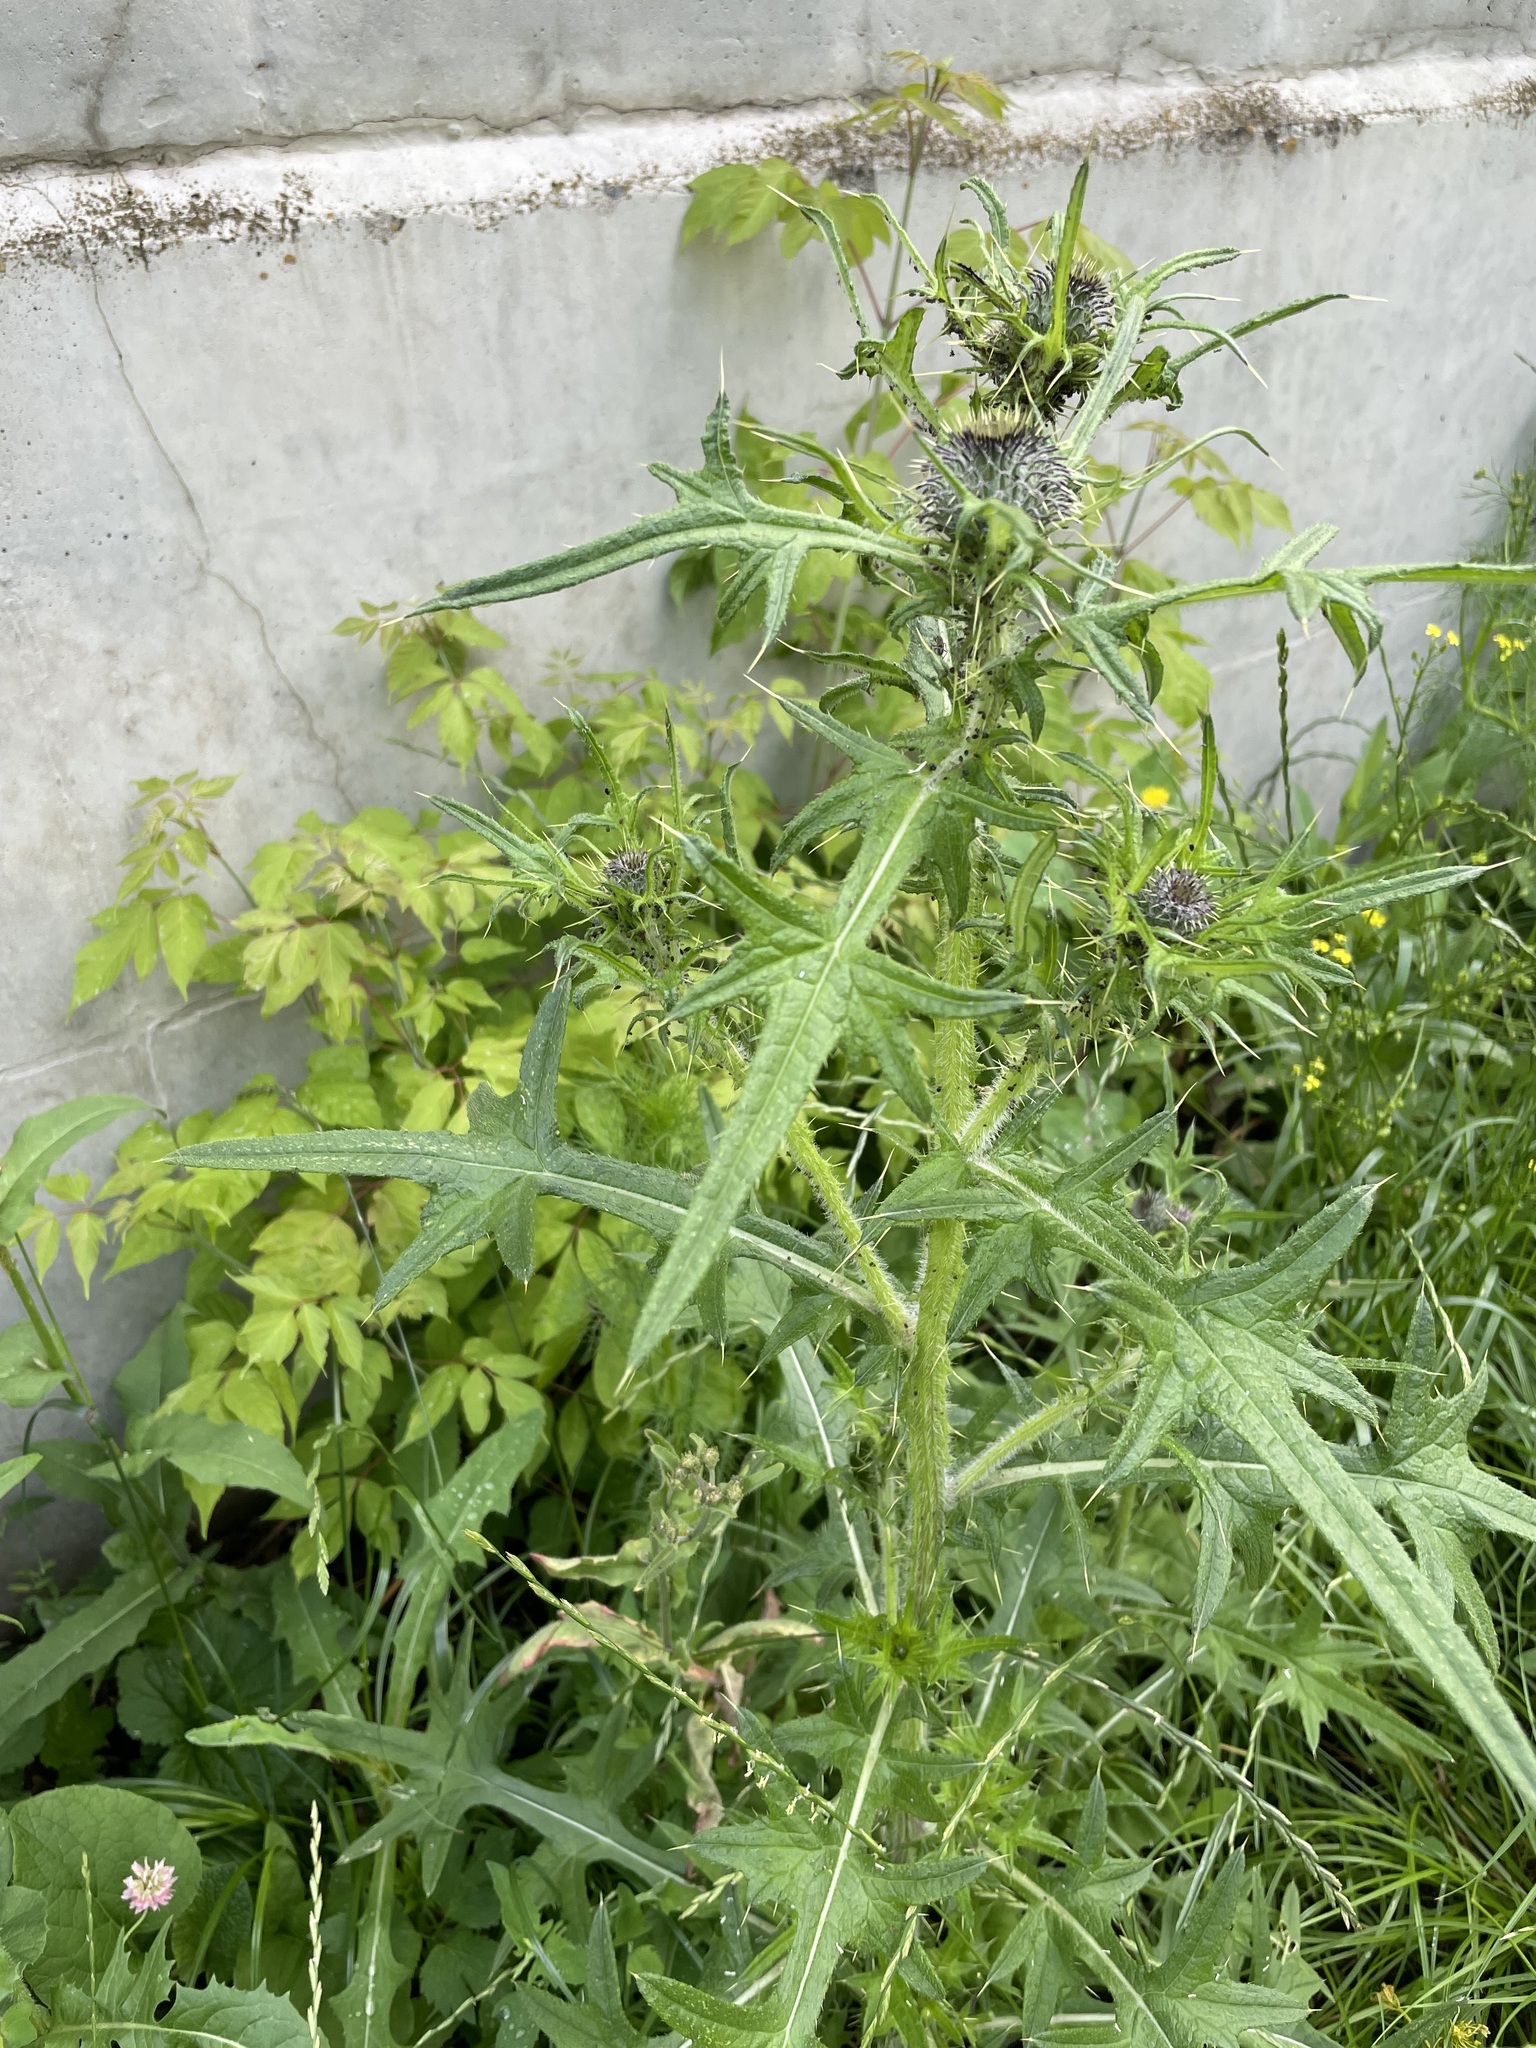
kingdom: Plantae
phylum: Tracheophyta
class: Magnoliopsida
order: Asterales
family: Asteraceae
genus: Cirsium
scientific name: Cirsium vulgare
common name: Bull thistle
